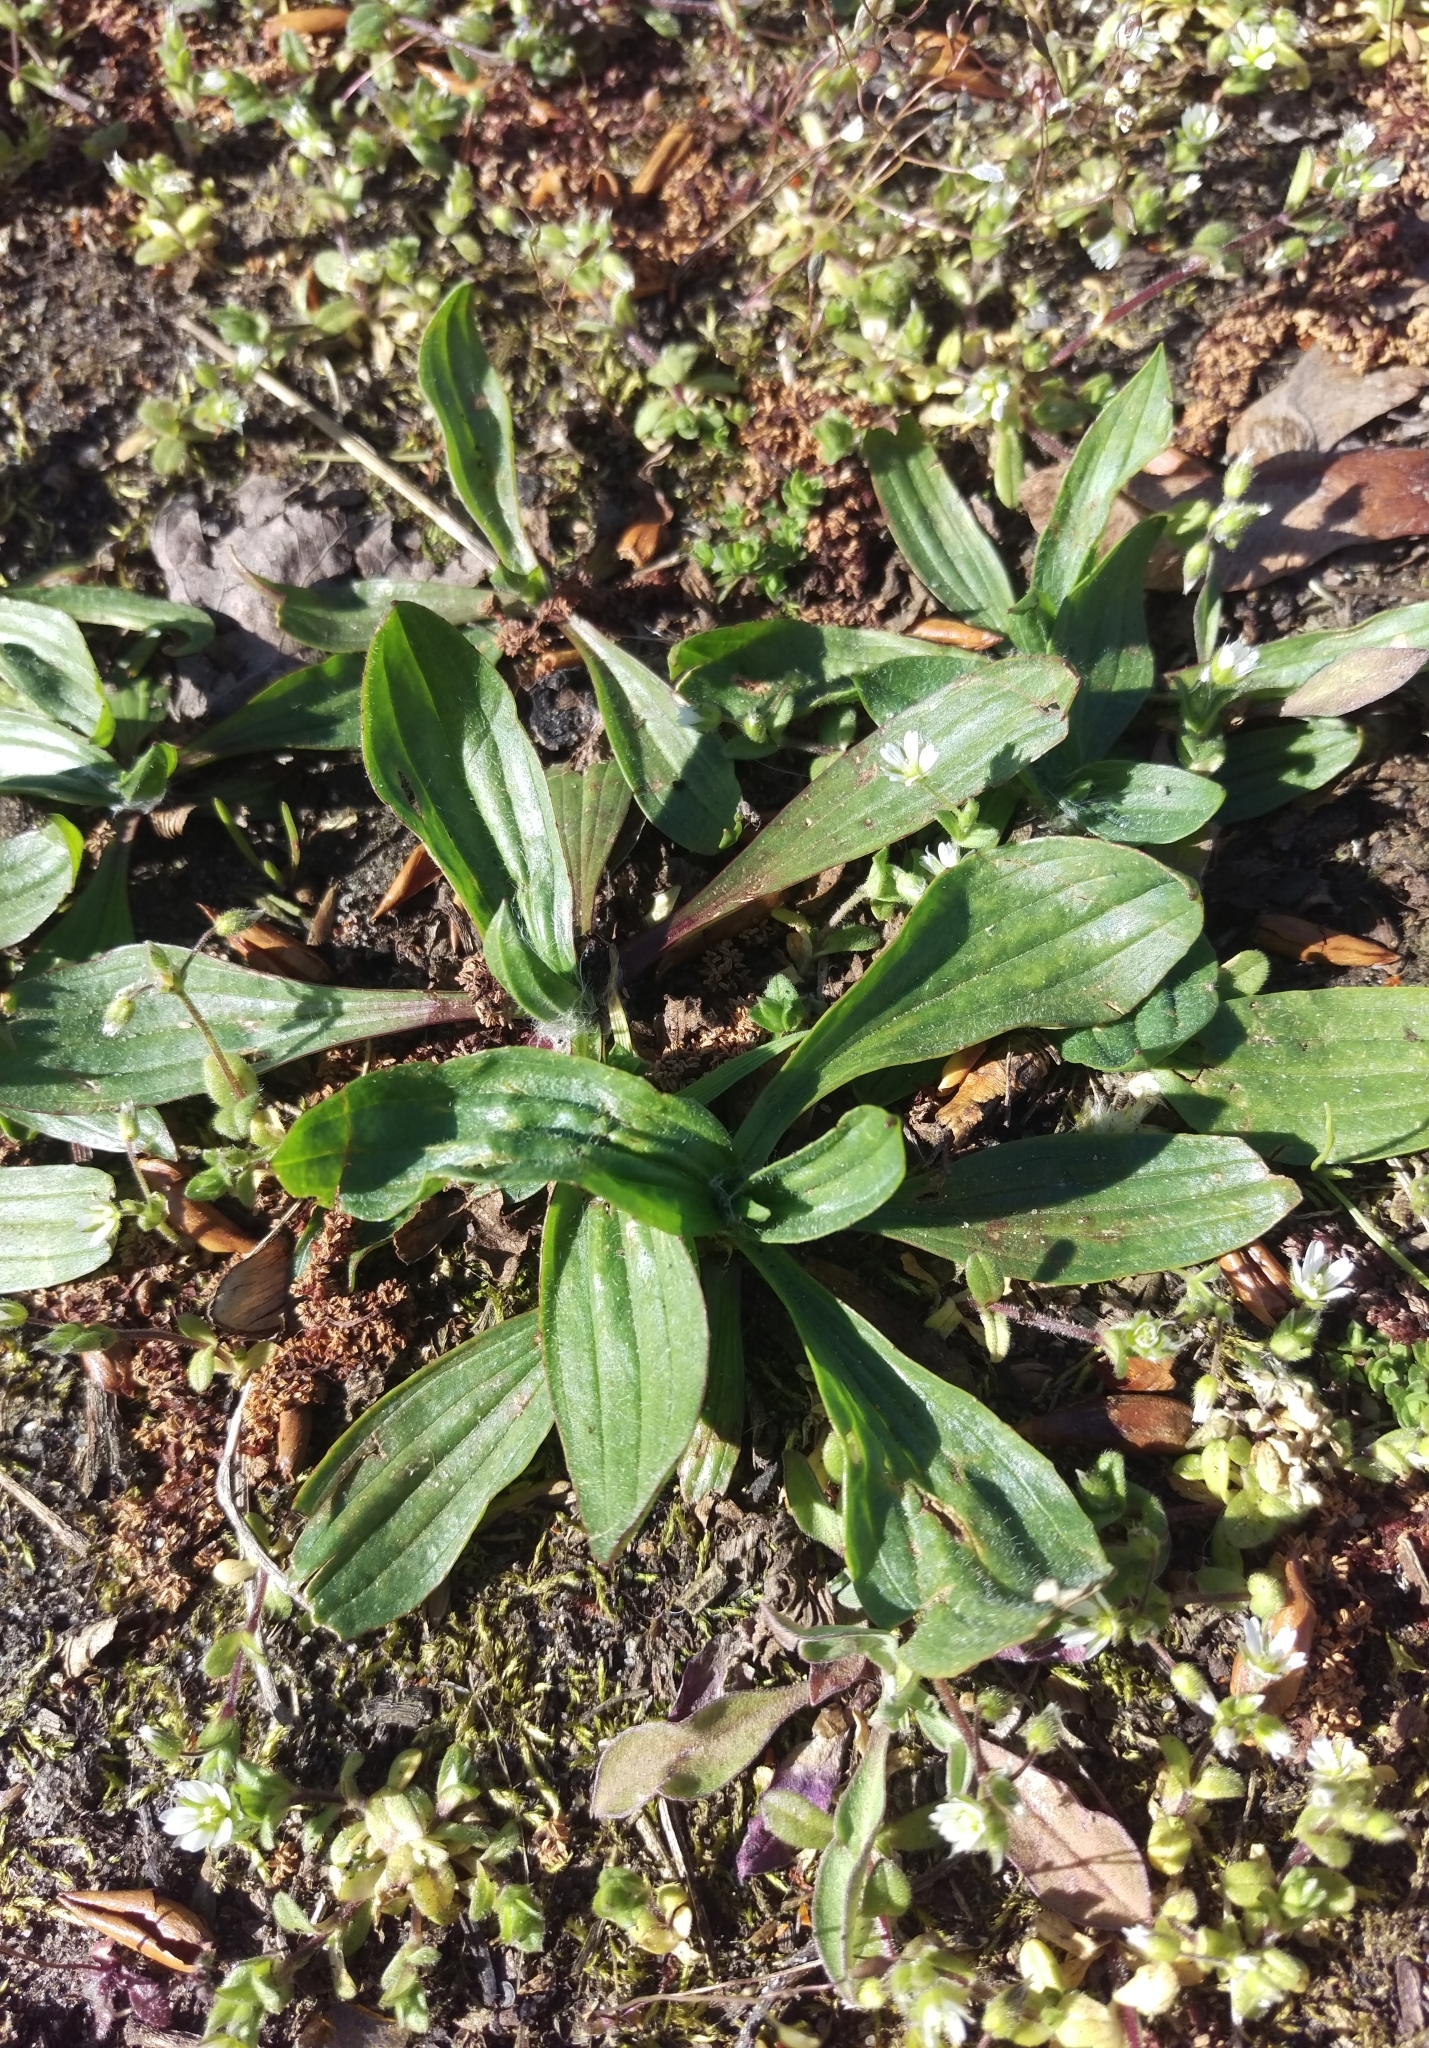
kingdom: Plantae
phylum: Tracheophyta
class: Magnoliopsida
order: Lamiales
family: Plantaginaceae
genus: Plantago
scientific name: Plantago lanceolata
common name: Ribwort plantain
